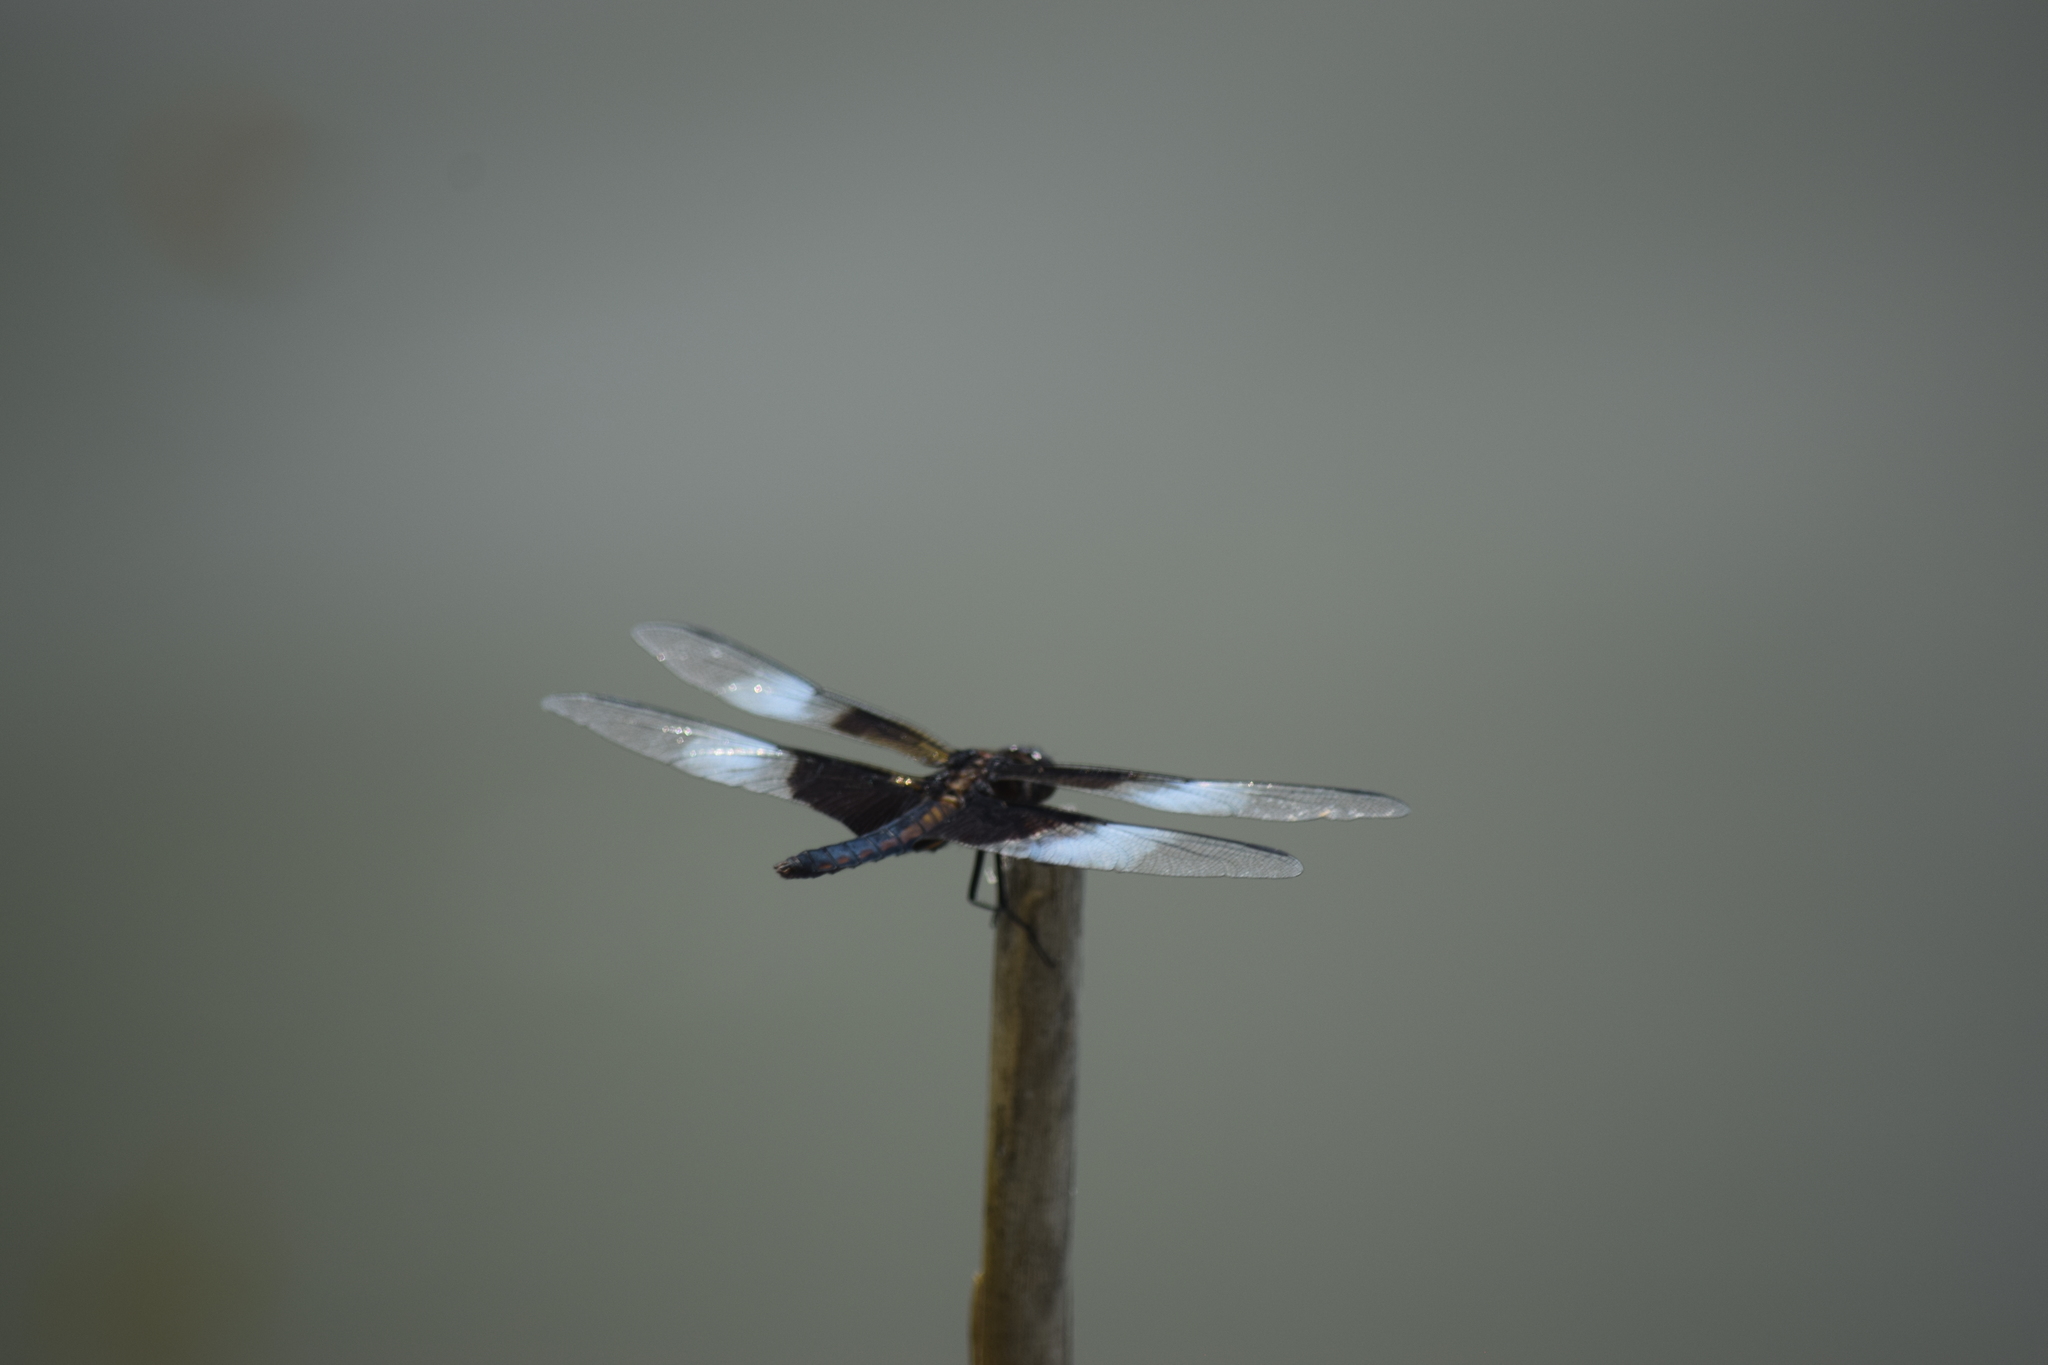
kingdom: Animalia
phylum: Arthropoda
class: Insecta
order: Odonata
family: Libellulidae
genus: Libellula
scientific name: Libellula luctuosa
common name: Widow skimmer
